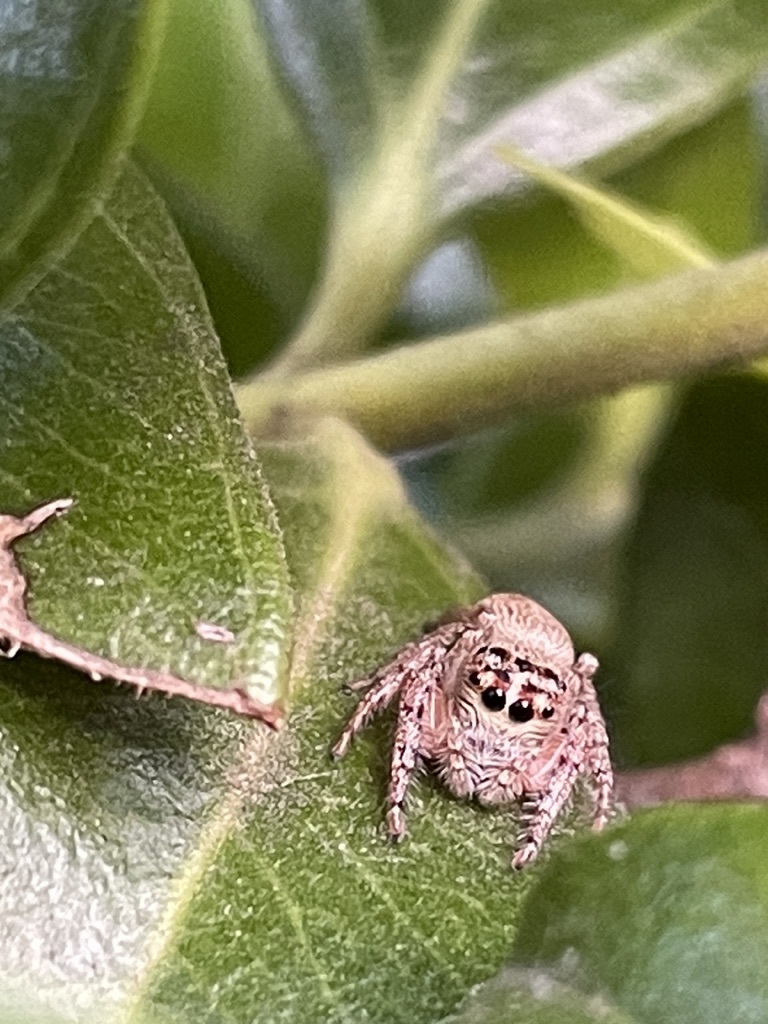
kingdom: Animalia
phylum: Arthropoda
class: Arachnida
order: Araneae
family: Salticidae
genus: Opisthoncus
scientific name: Opisthoncus nigrofemoratus
